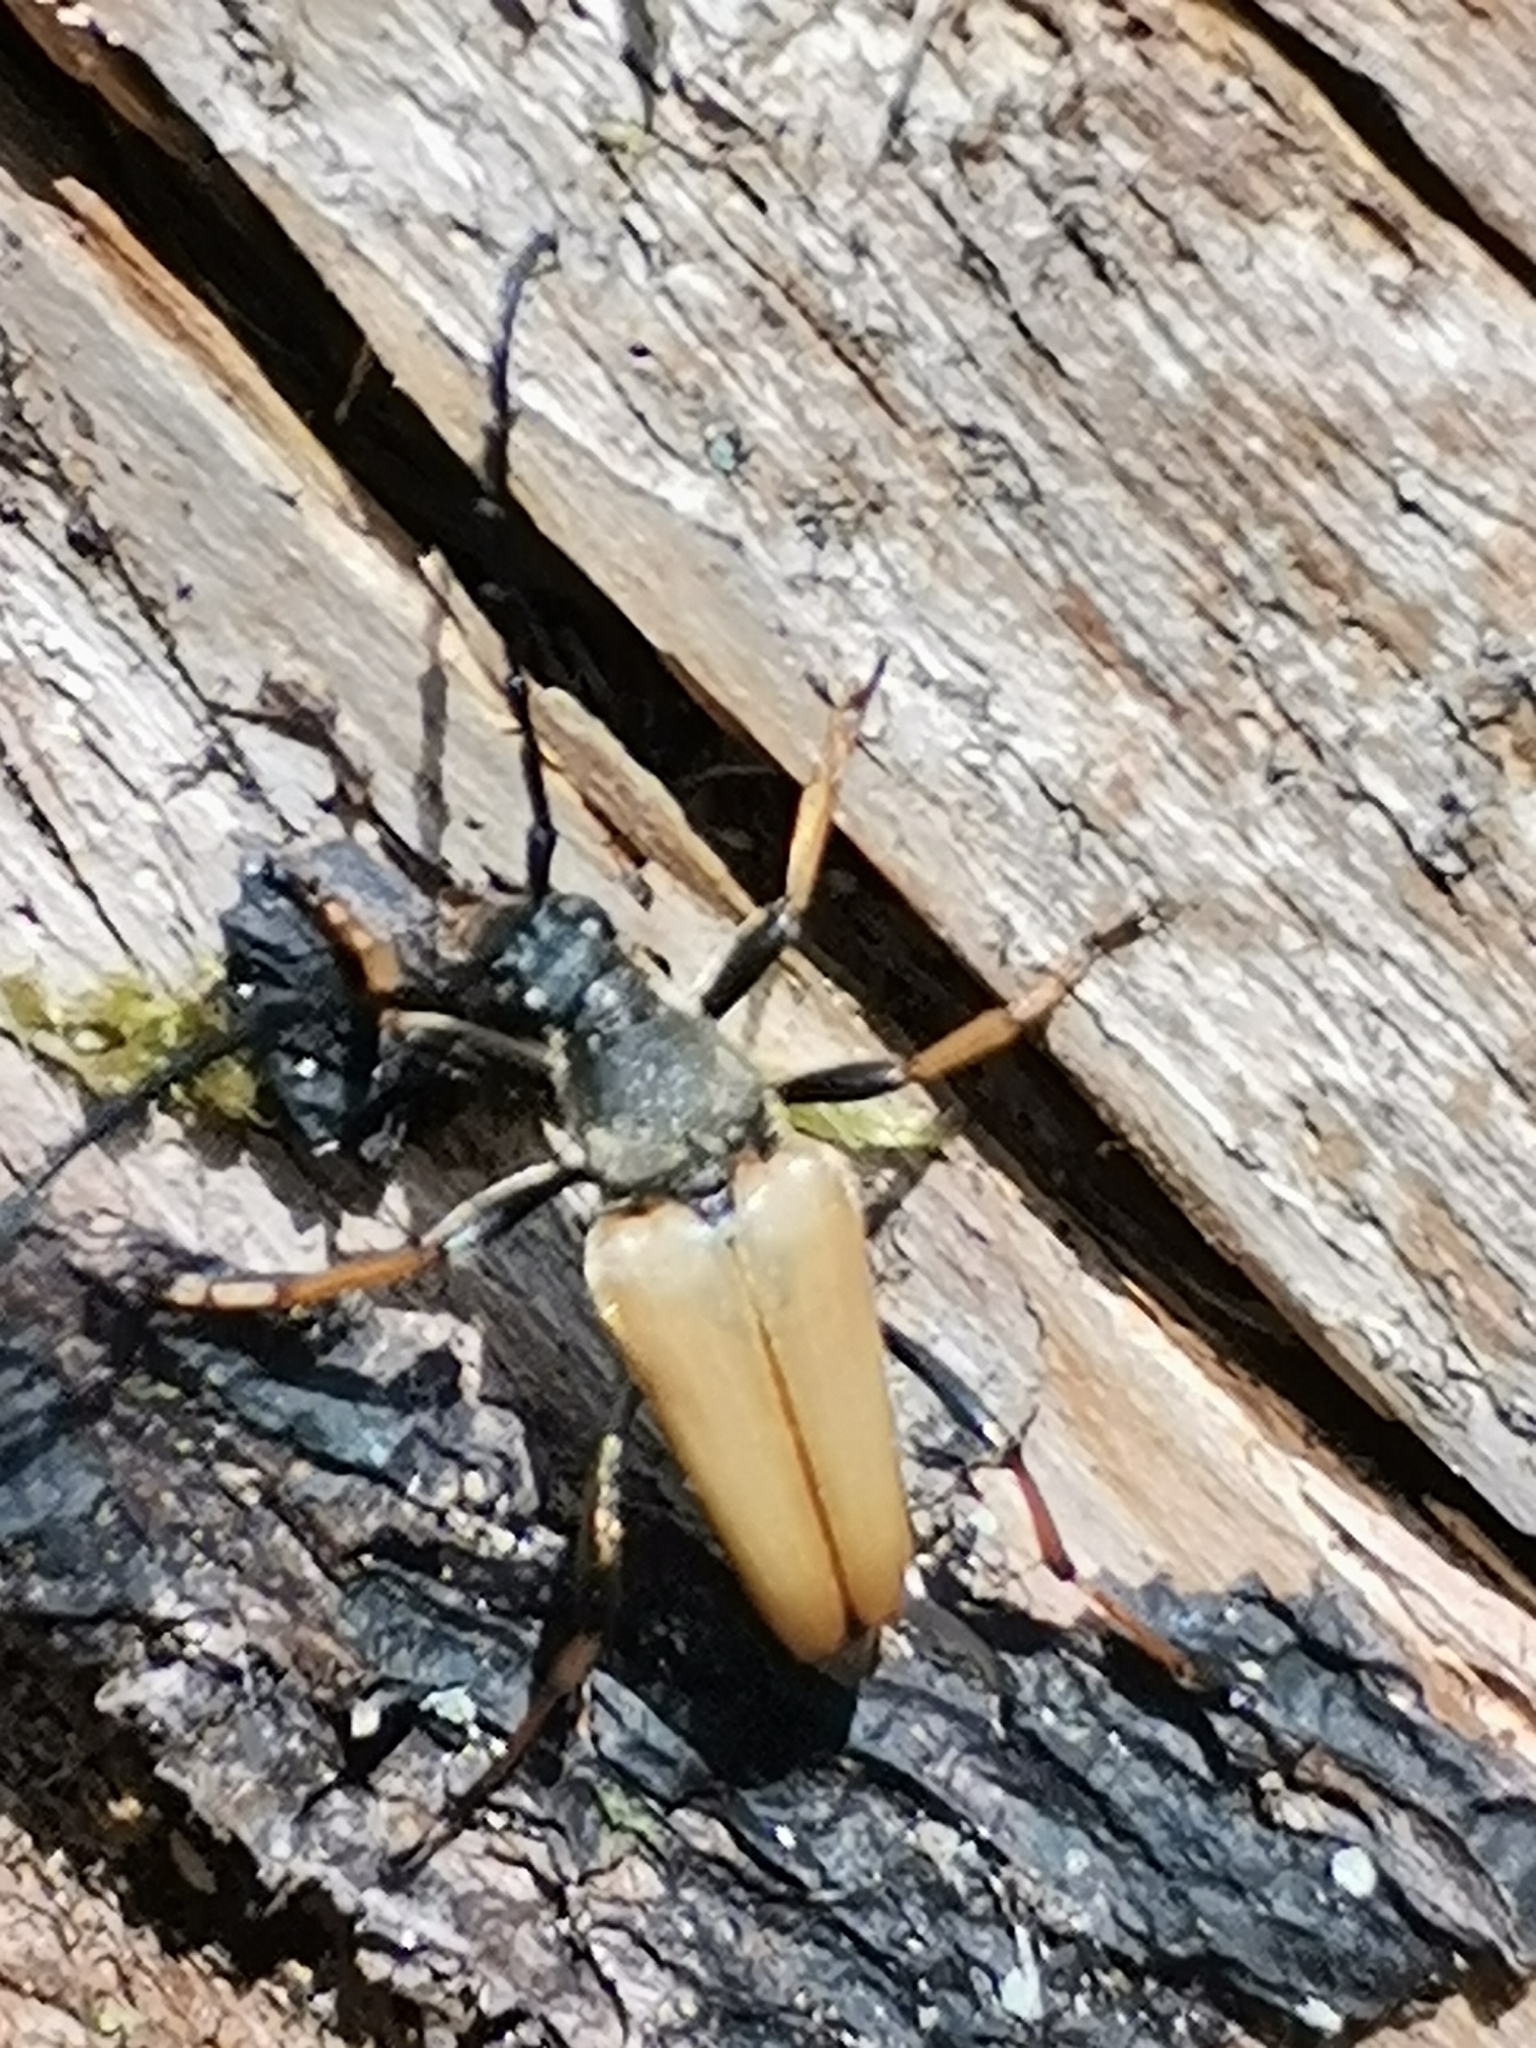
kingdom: Animalia
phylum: Arthropoda
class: Insecta
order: Coleoptera
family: Cerambycidae
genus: Stictoleptura
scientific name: Stictoleptura rubra
